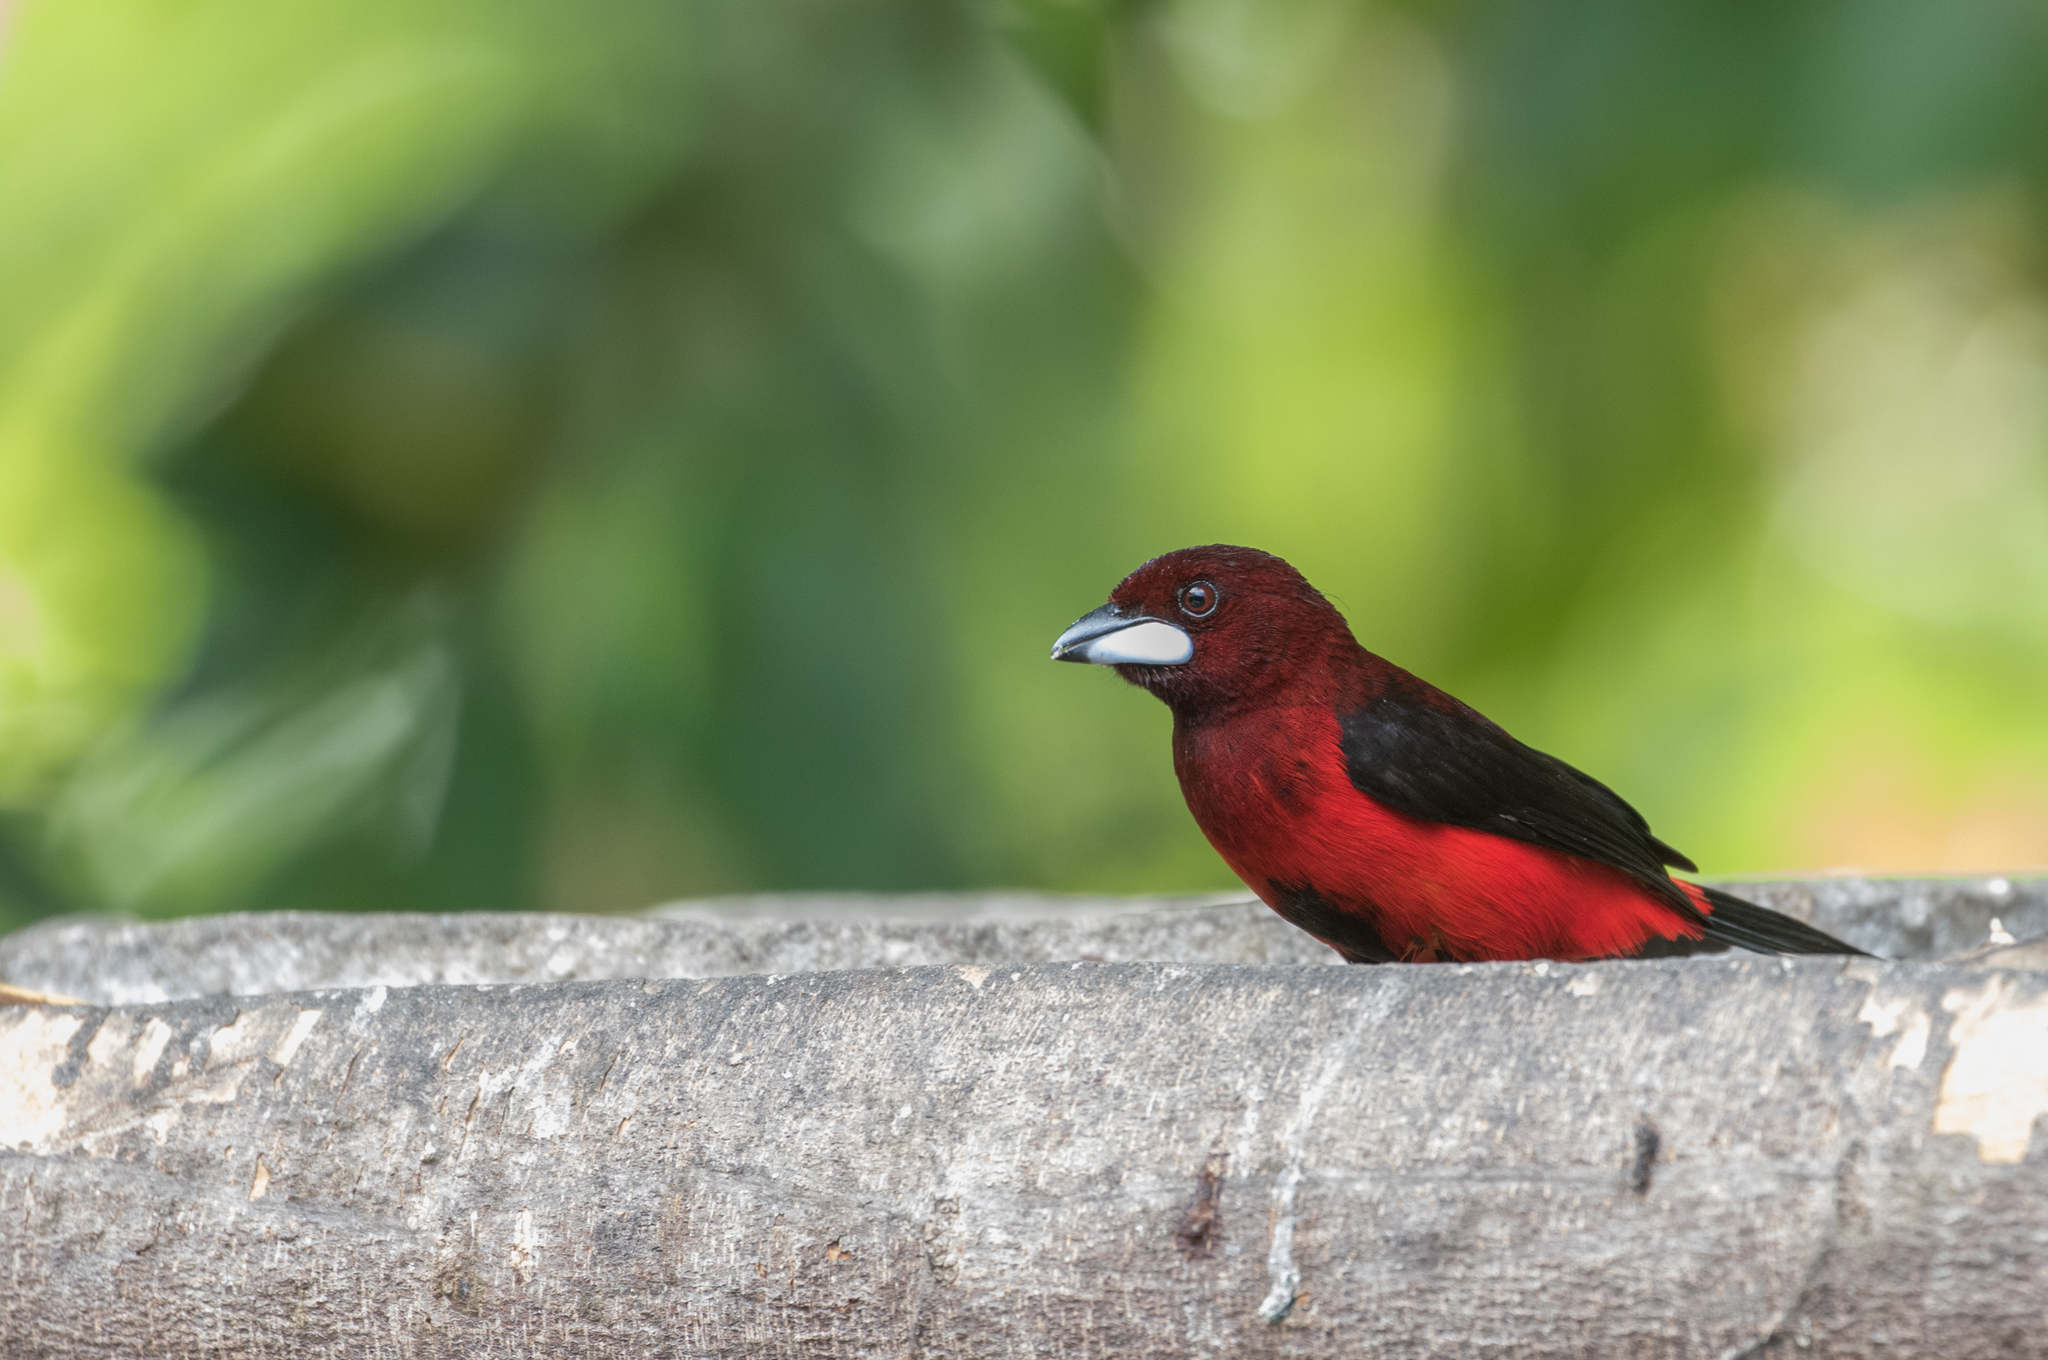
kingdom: Animalia
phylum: Chordata
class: Aves
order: Passeriformes
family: Thraupidae
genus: Ramphocelus
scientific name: Ramphocelus dimidiatus
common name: Crimson-backed tanager
